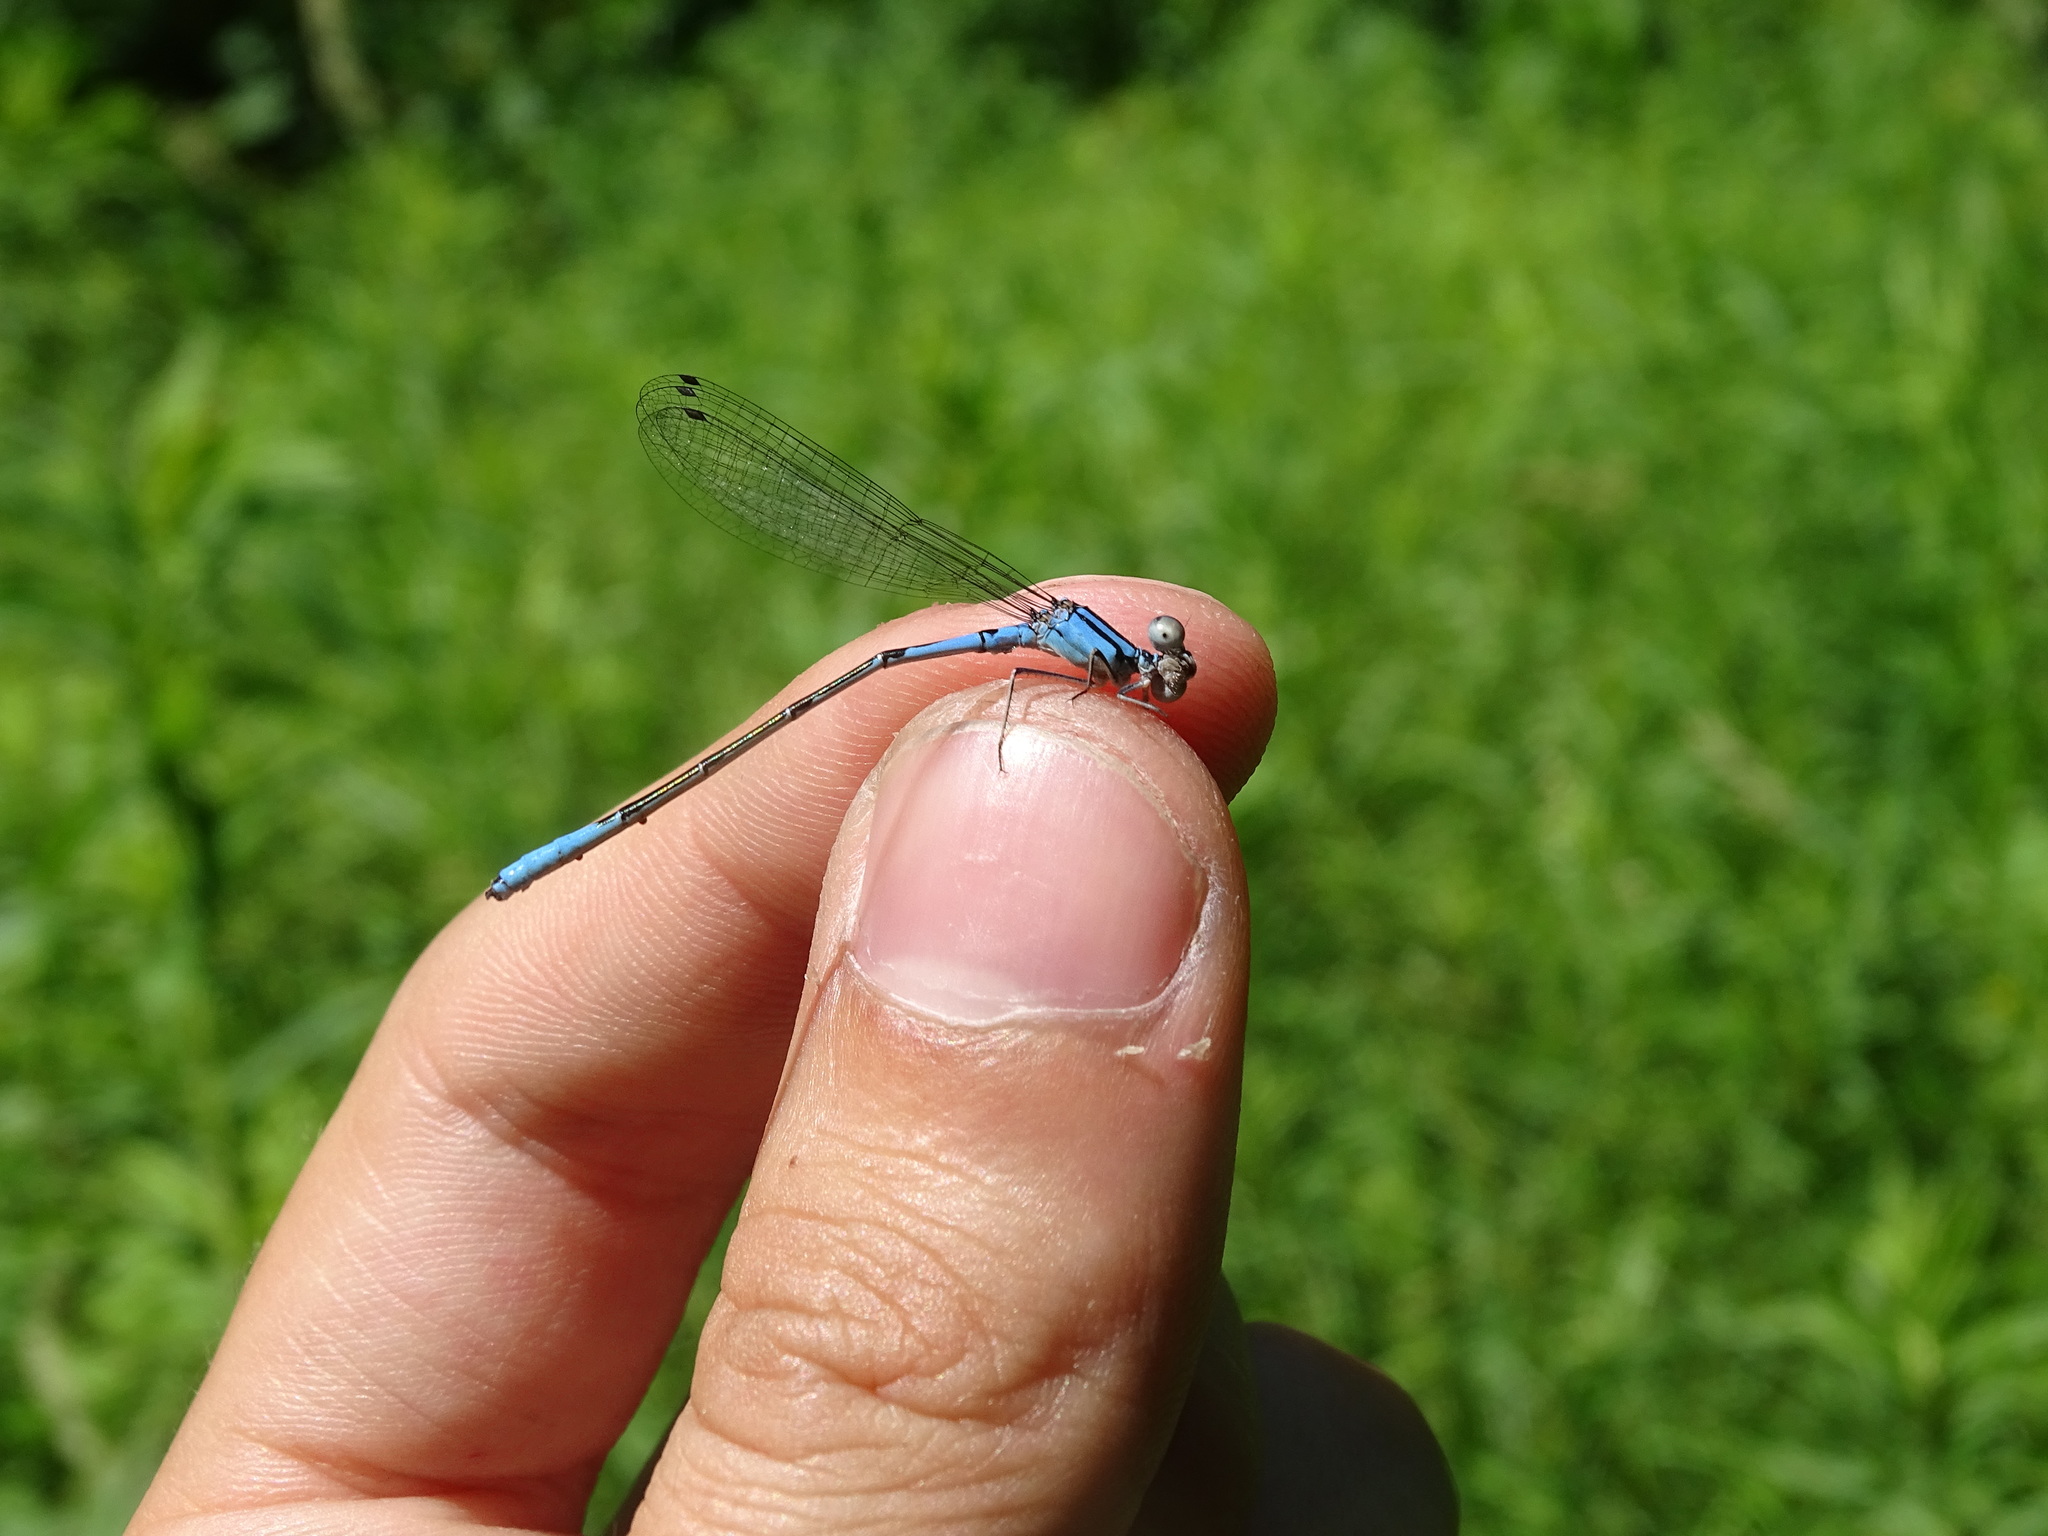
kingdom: Animalia
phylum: Arthropoda
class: Insecta
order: Odonata
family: Coenagrionidae
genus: Enallagma
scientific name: Enallagma aspersum
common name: Azure bluet
